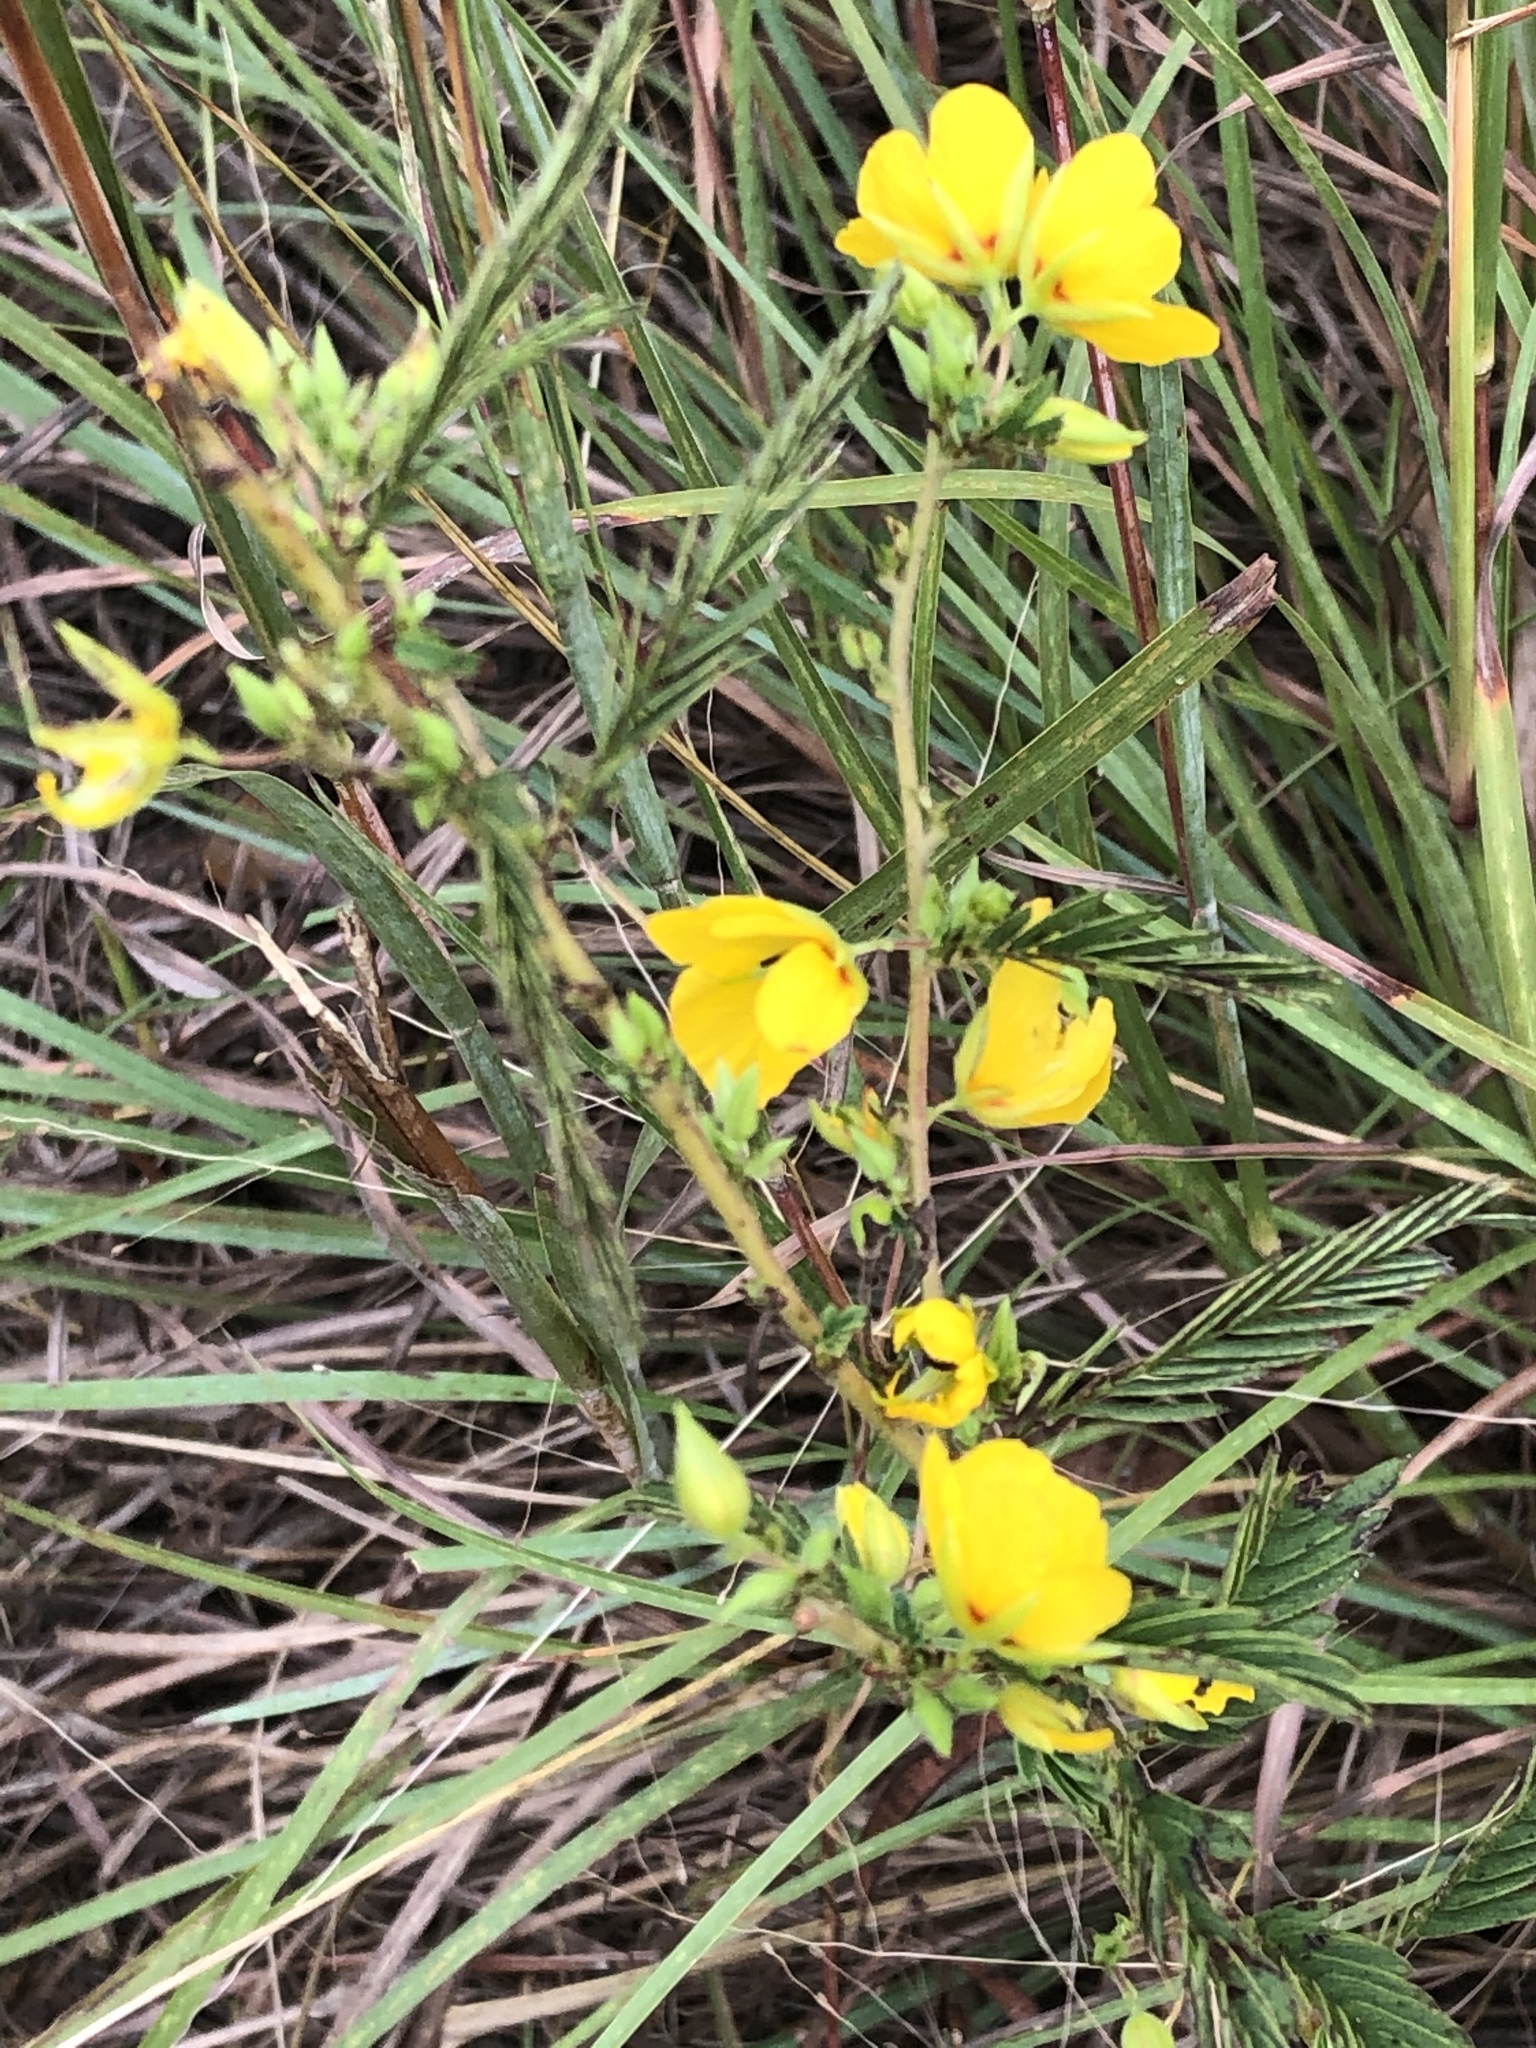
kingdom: Plantae
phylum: Tracheophyta
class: Magnoliopsida
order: Fabales
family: Fabaceae
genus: Chamaecrista
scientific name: Chamaecrista fasciculata
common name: Golden cassia
